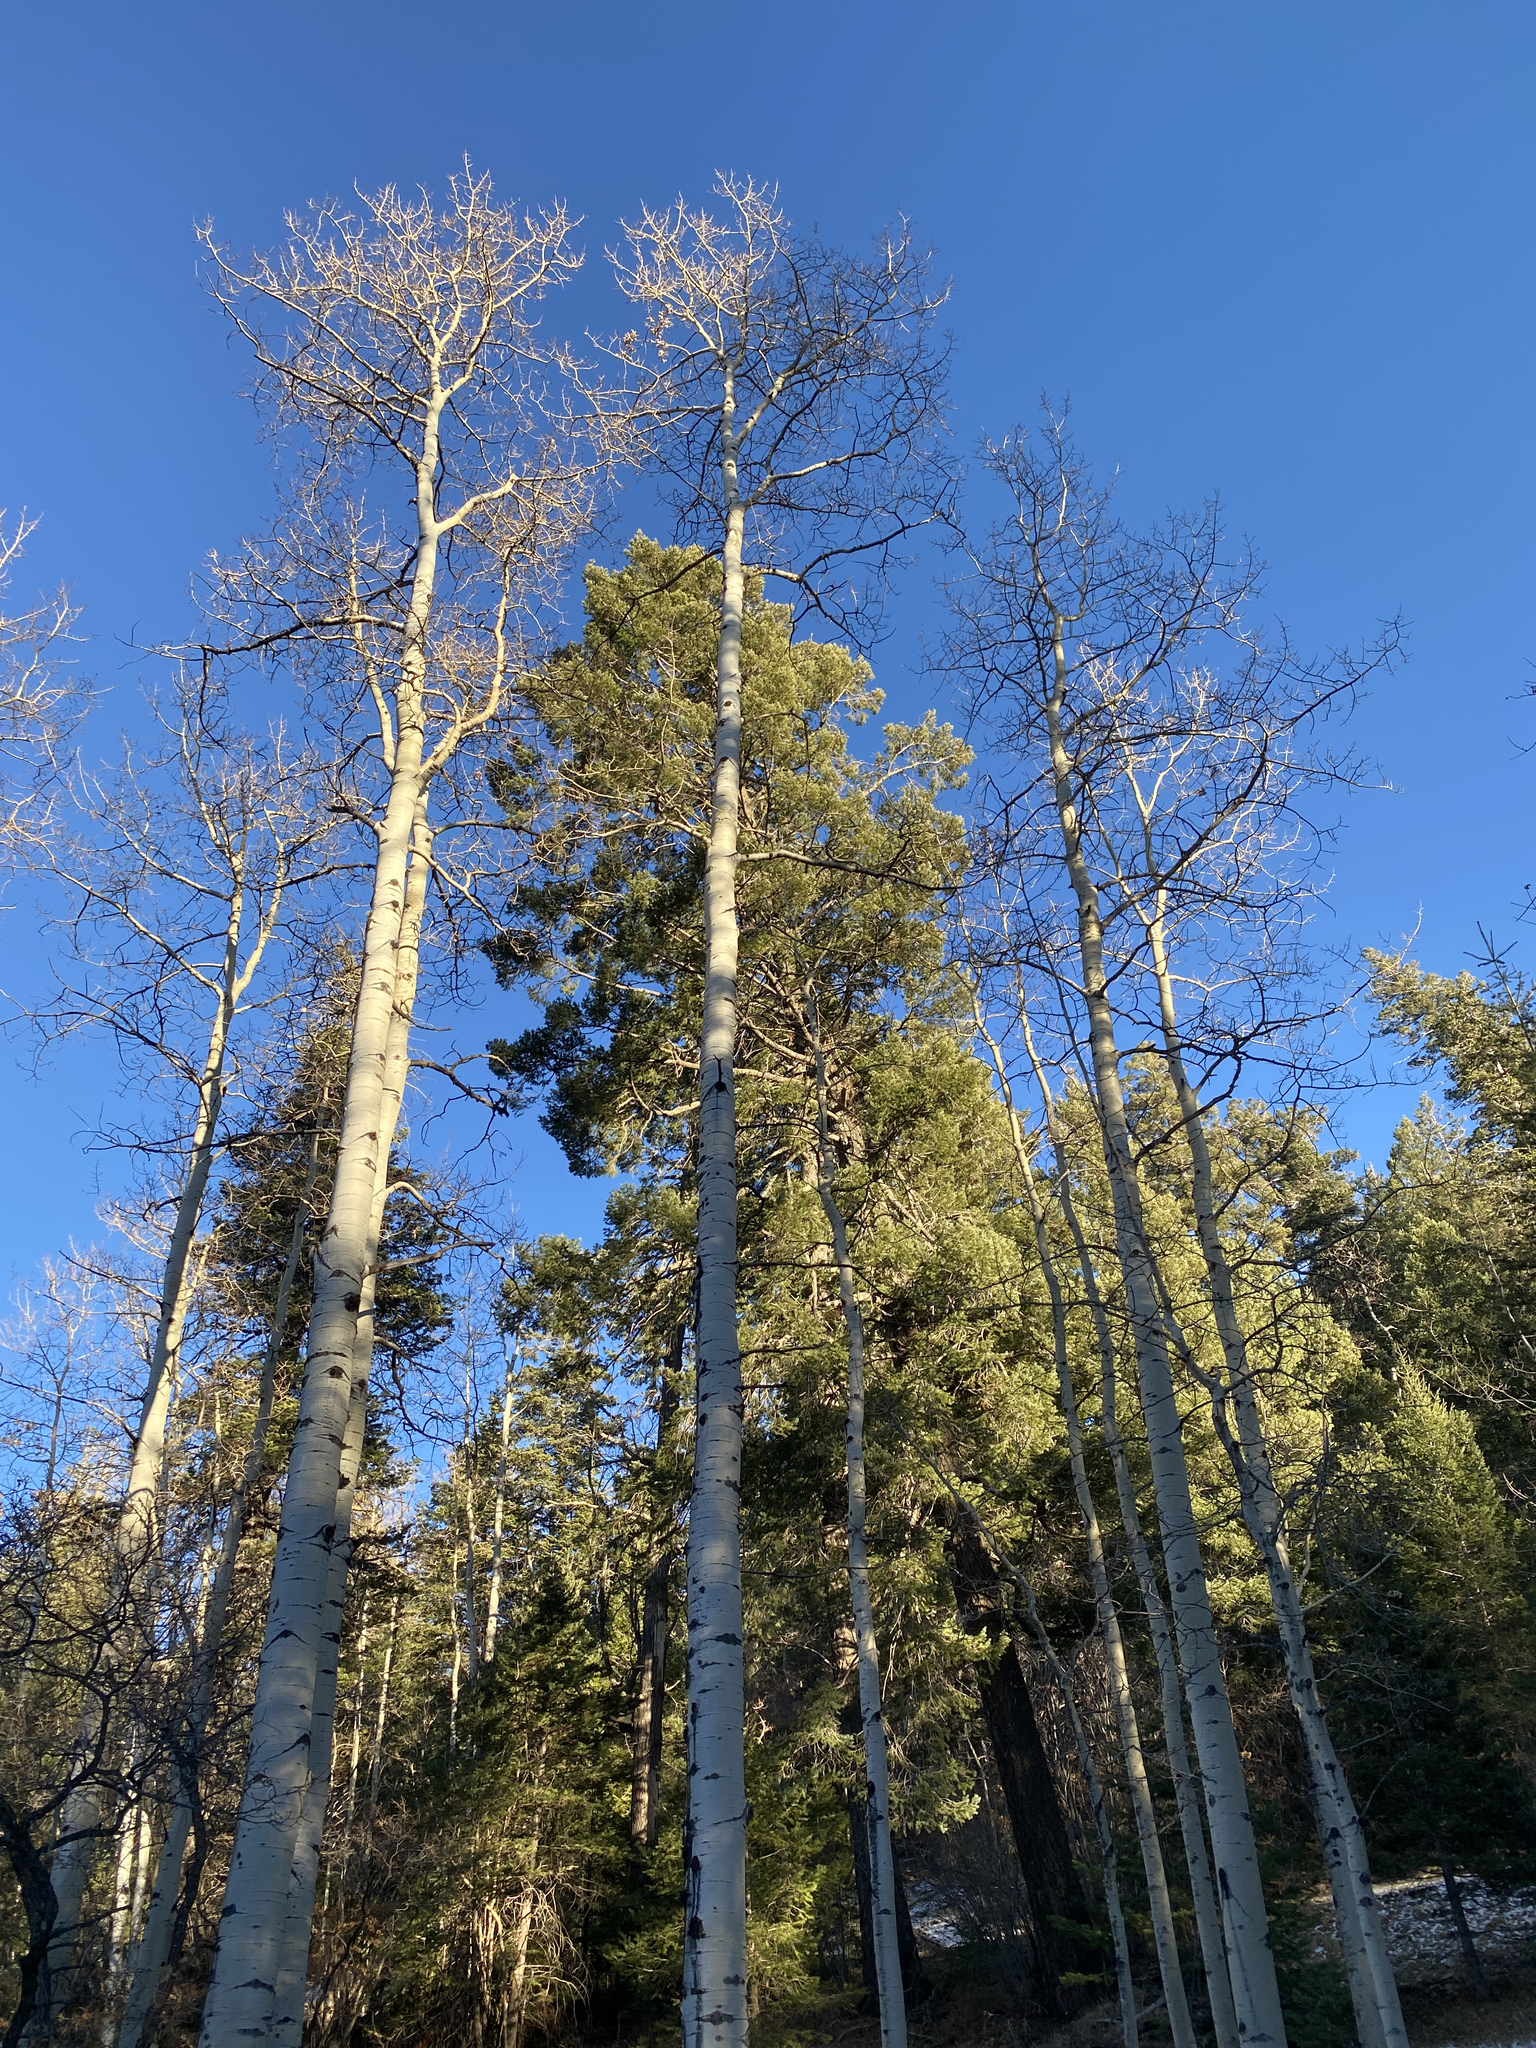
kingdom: Plantae
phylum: Tracheophyta
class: Magnoliopsida
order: Malpighiales
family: Salicaceae
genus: Populus
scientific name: Populus tremuloides
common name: Quaking aspen
